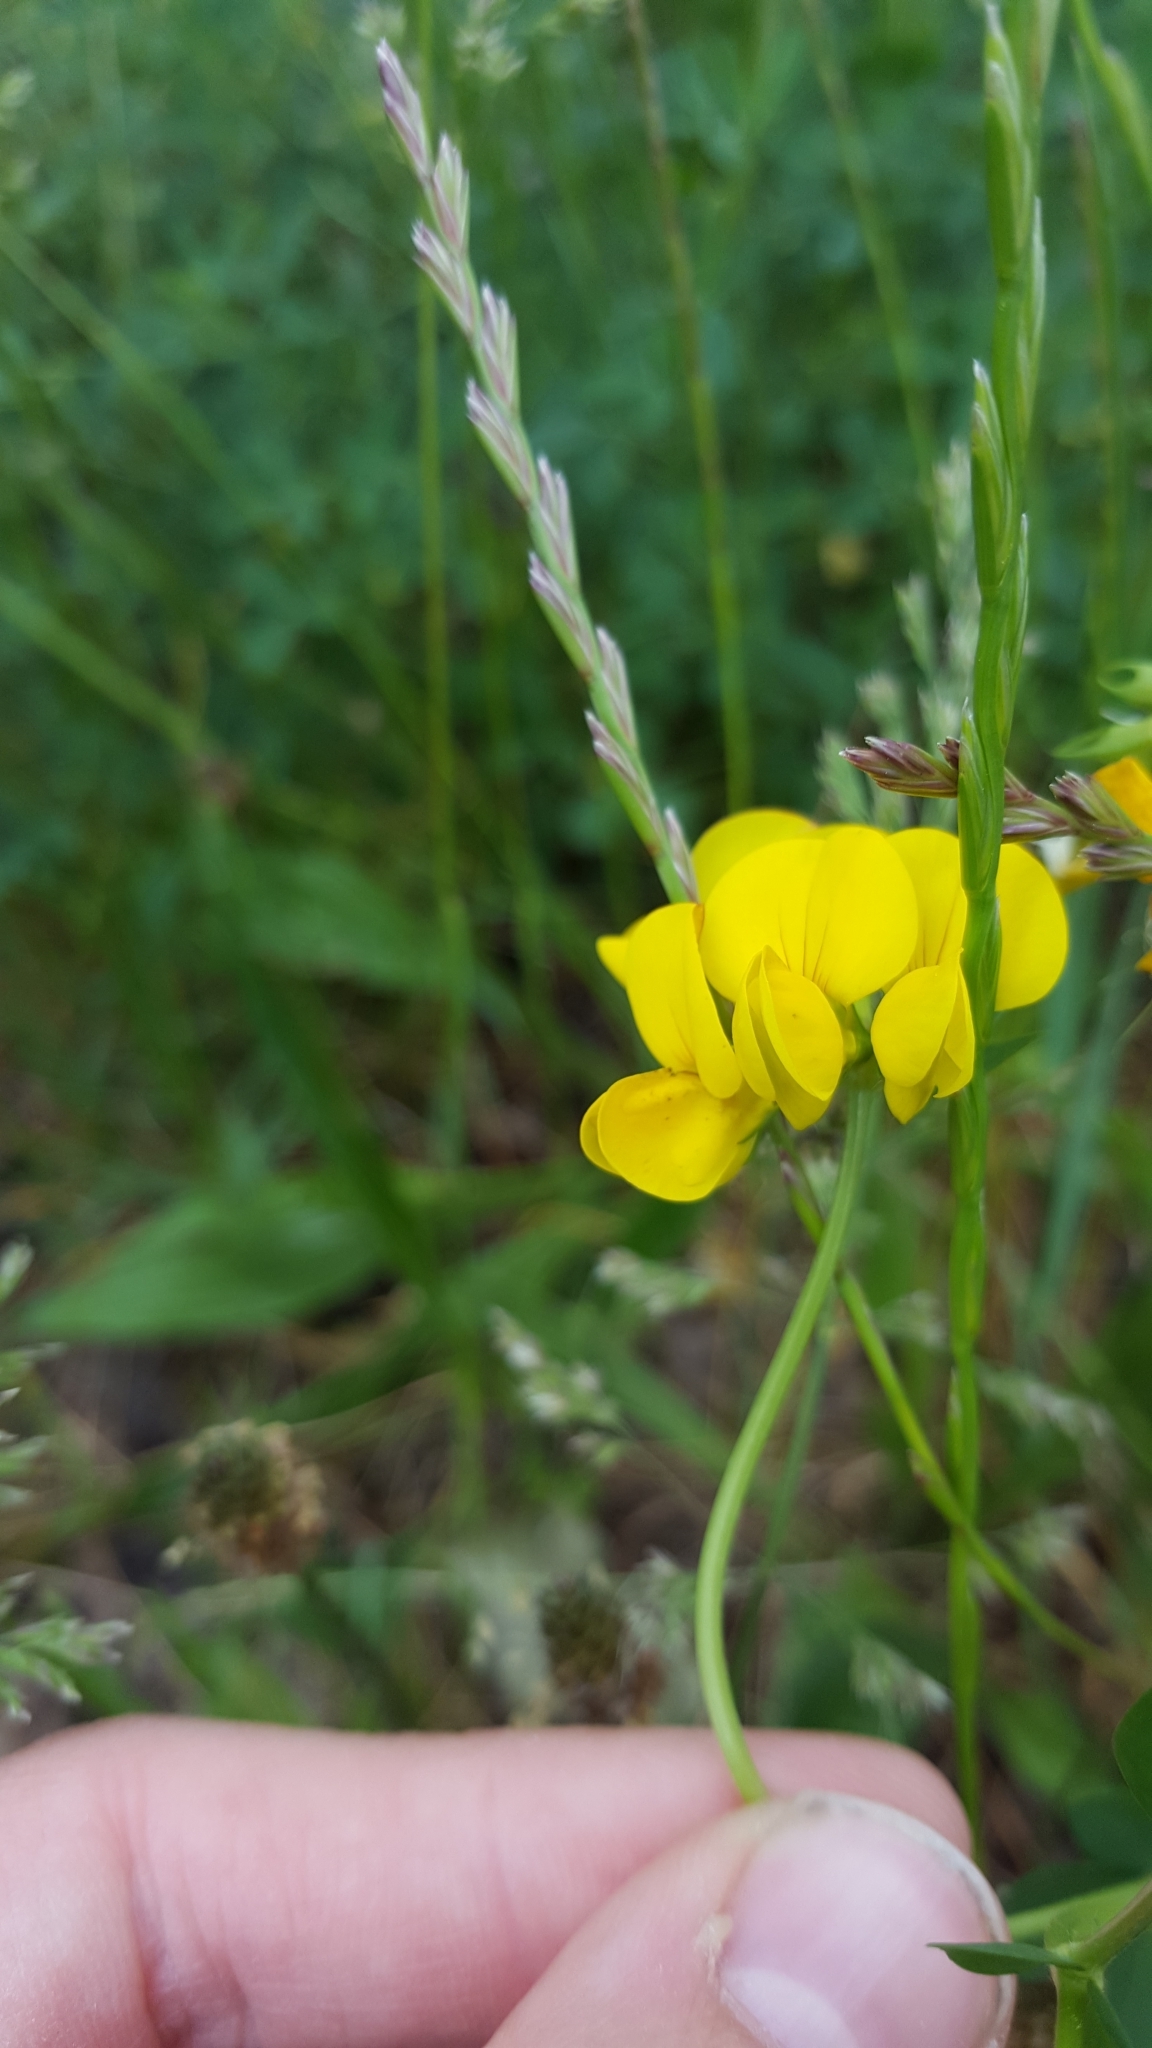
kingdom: Plantae
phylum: Tracheophyta
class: Magnoliopsida
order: Fabales
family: Fabaceae
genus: Lotus
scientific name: Lotus corniculatus
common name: Common bird's-foot-trefoil
